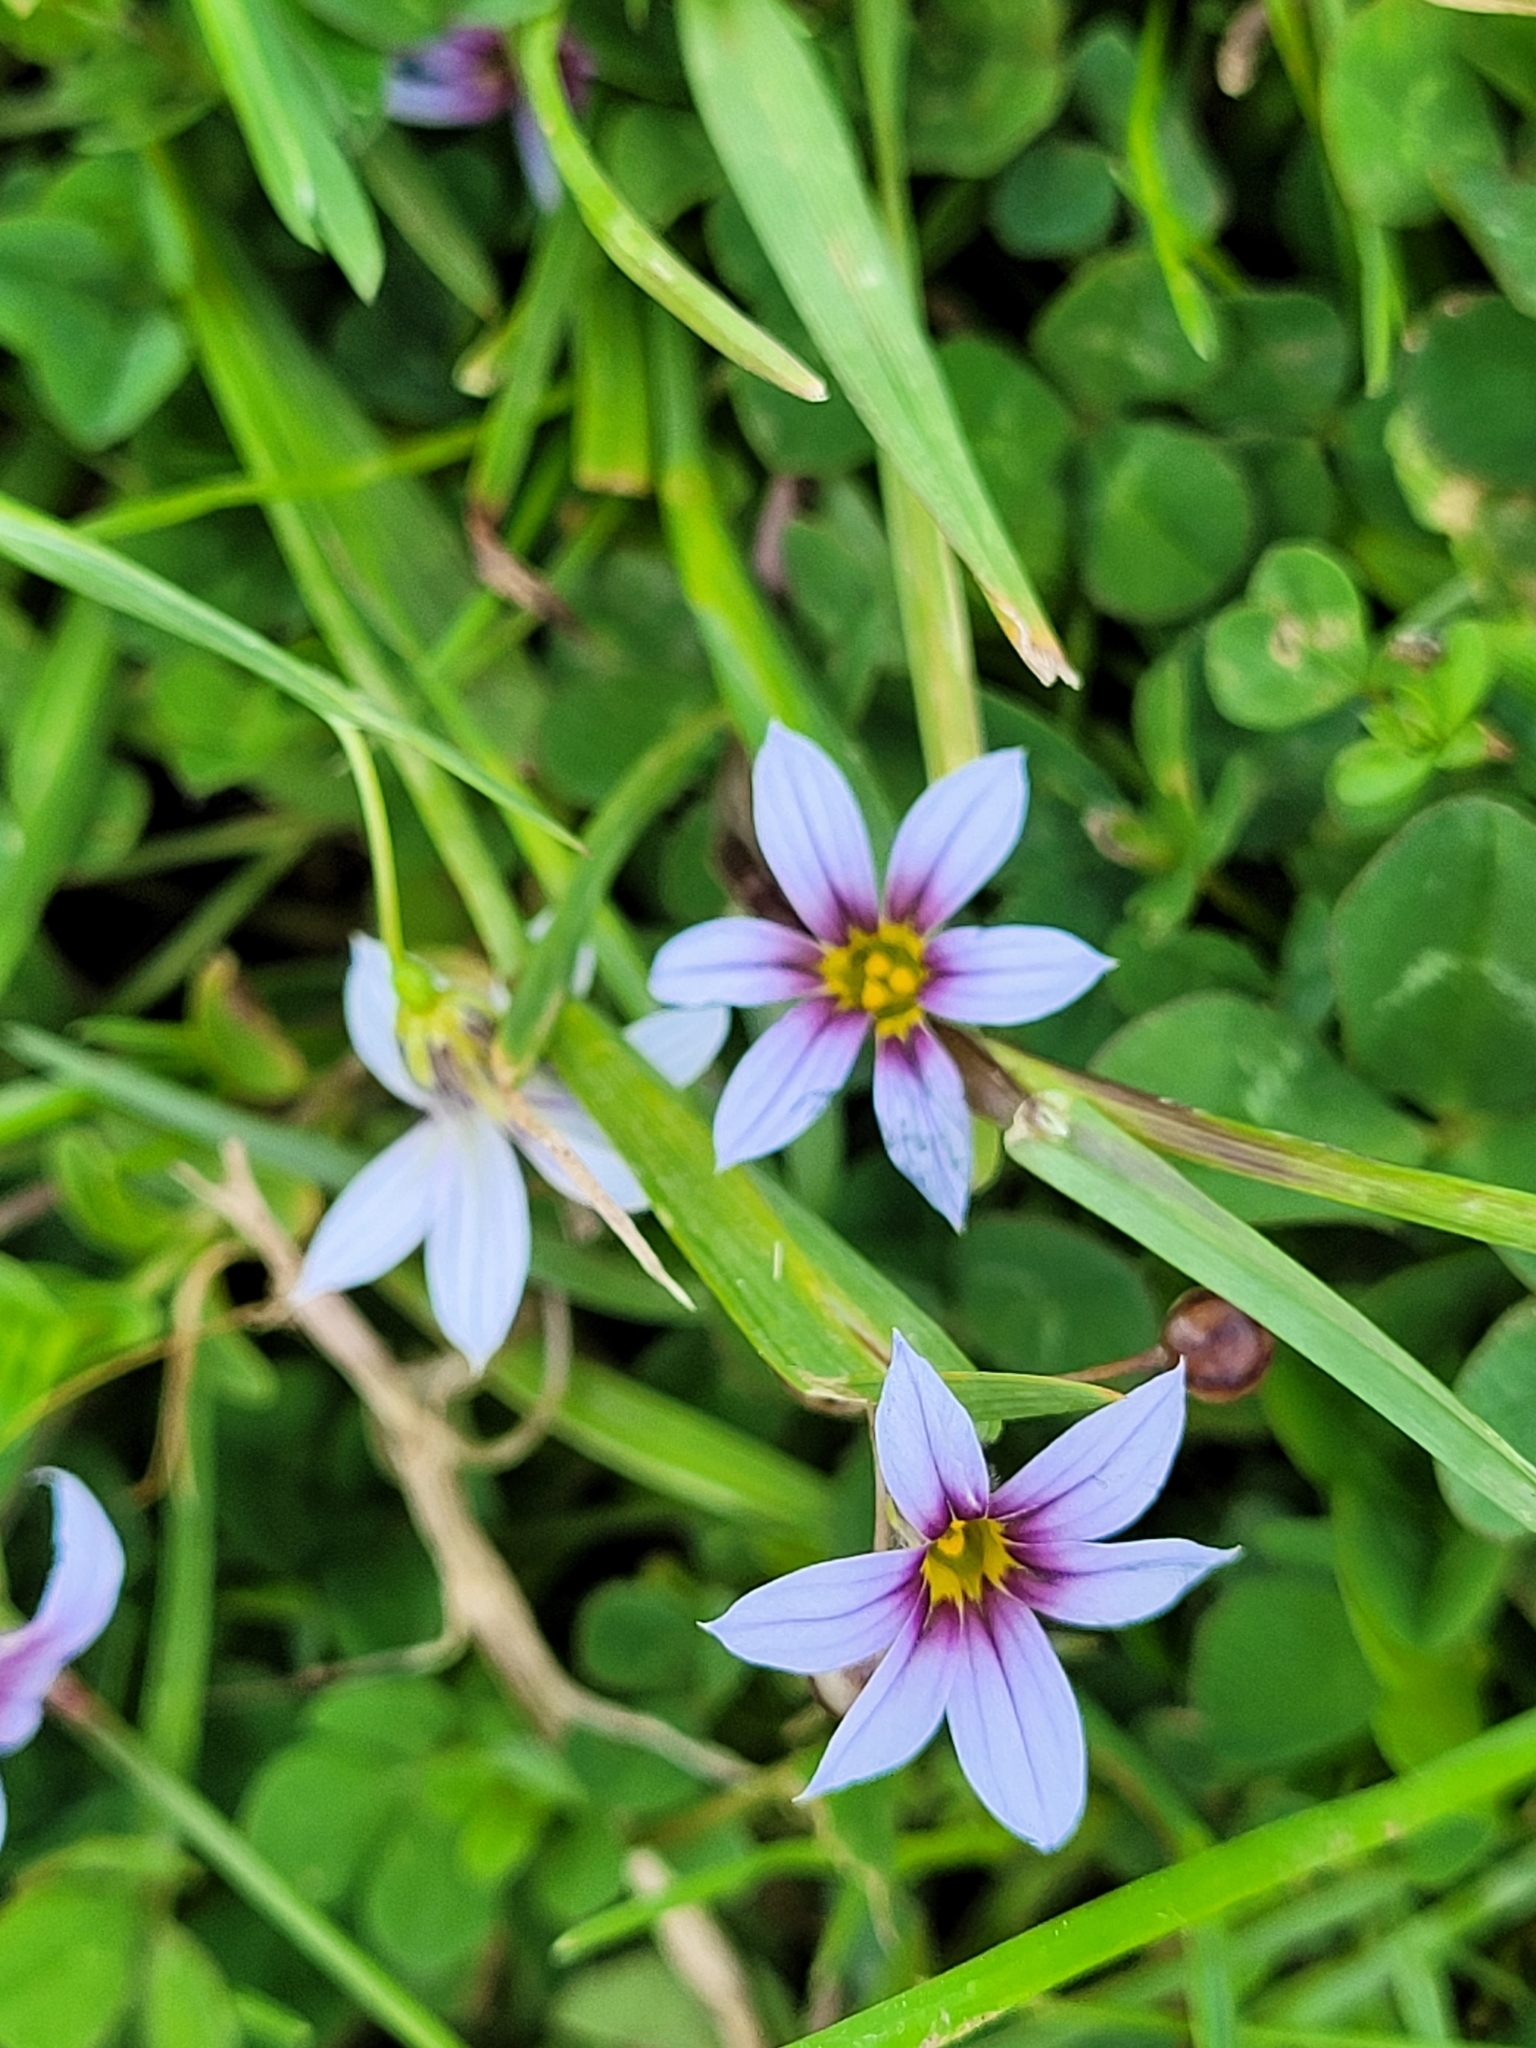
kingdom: Plantae
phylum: Tracheophyta
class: Liliopsida
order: Asparagales
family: Iridaceae
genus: Sisyrinchium
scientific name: Sisyrinchium micranthum
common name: Bermuda pigroot
